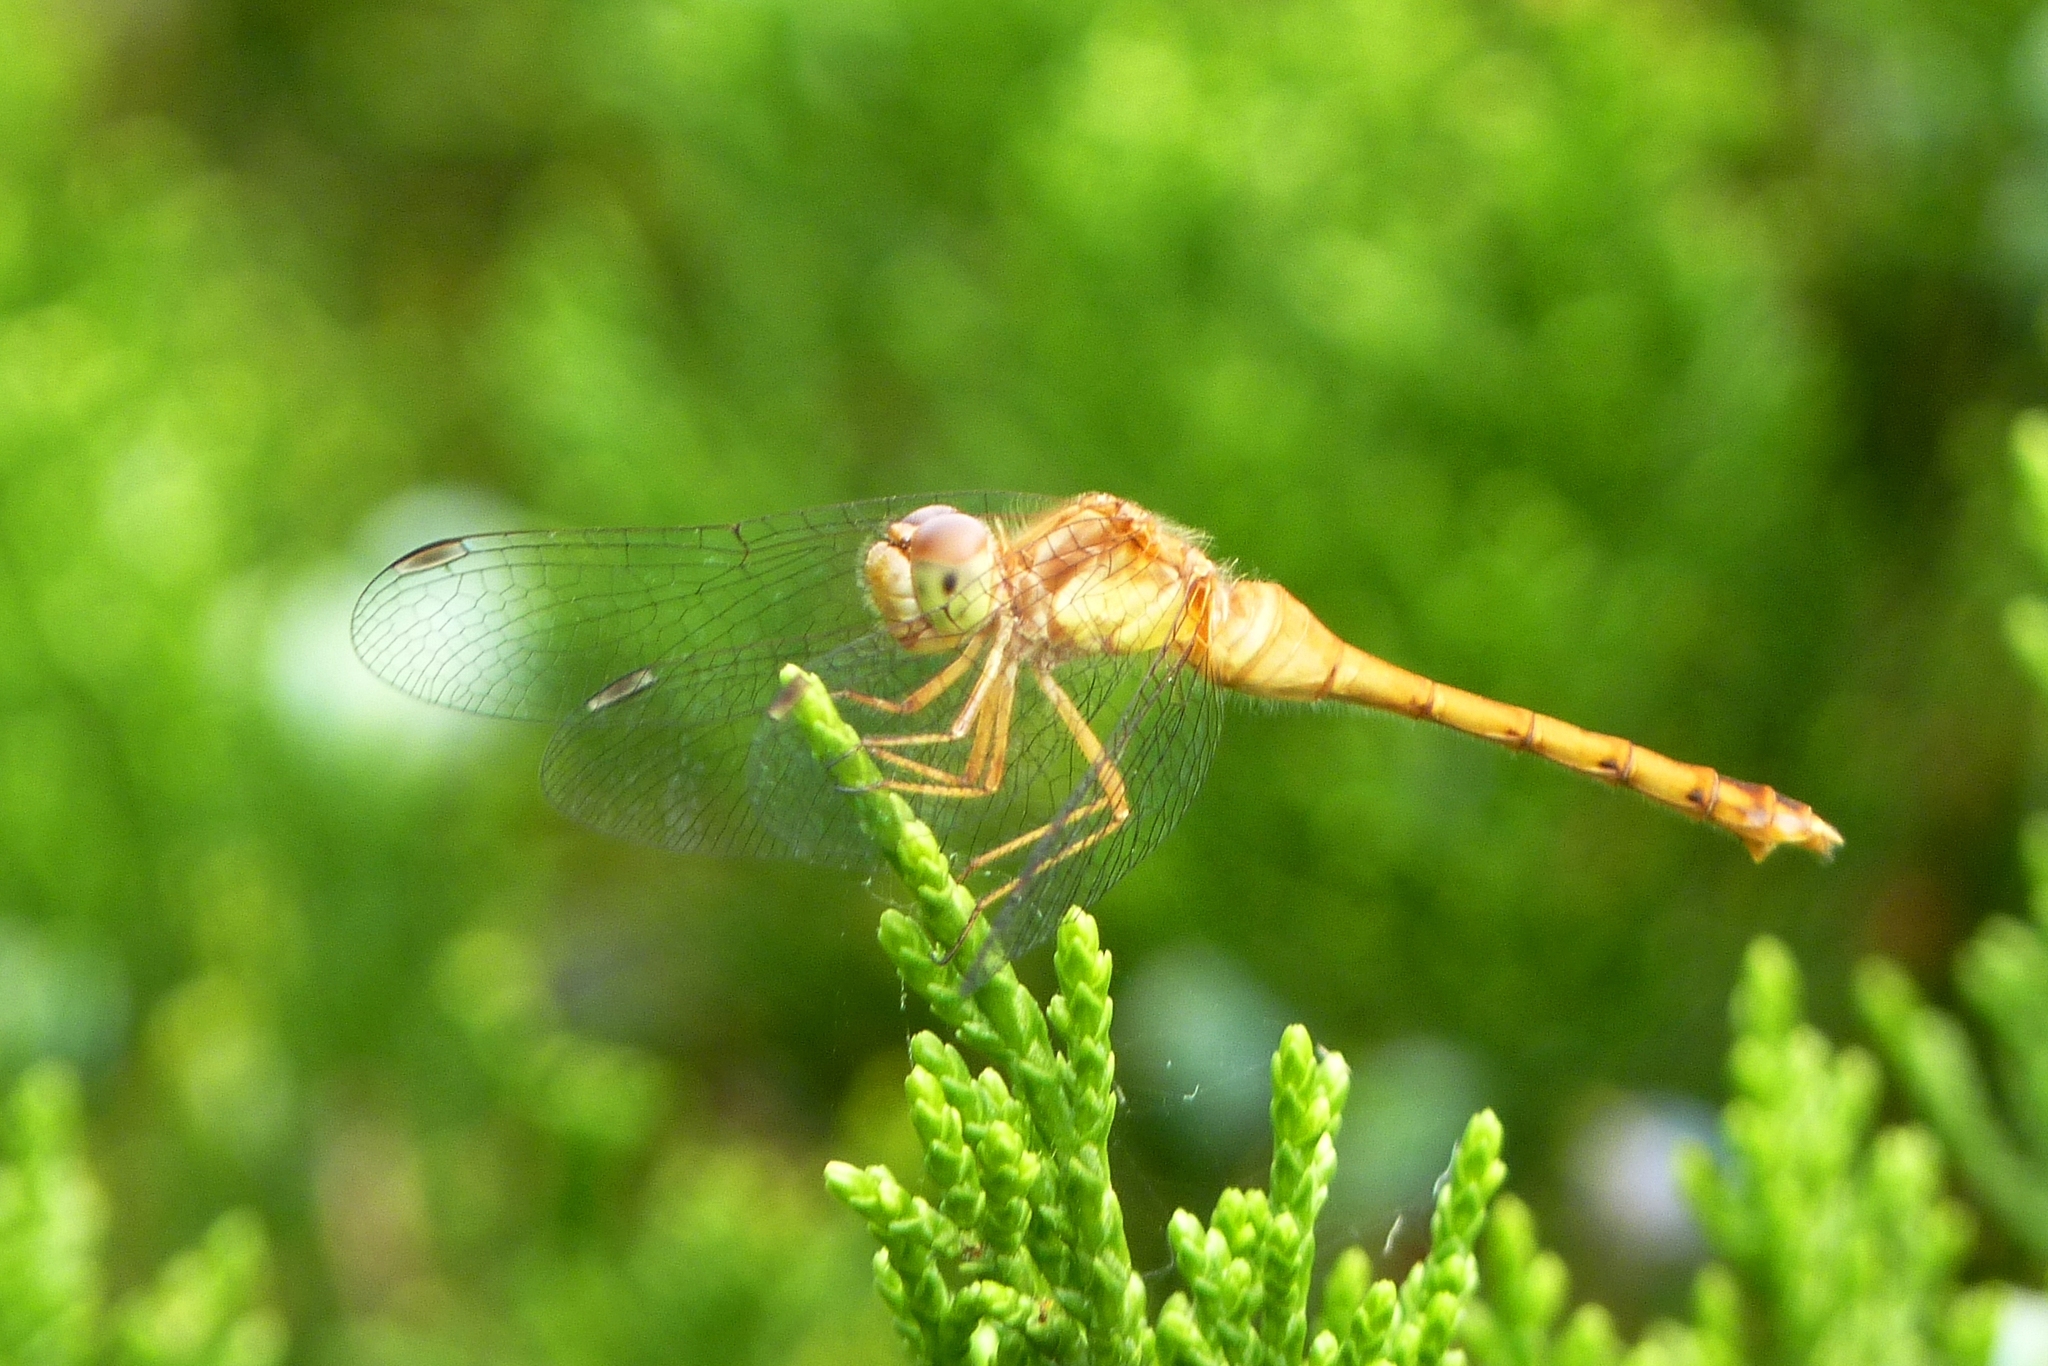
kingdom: Animalia
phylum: Arthropoda
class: Insecta
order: Odonata
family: Libellulidae
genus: Sympetrum
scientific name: Sympetrum vicinum
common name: Autumn meadowhawk
